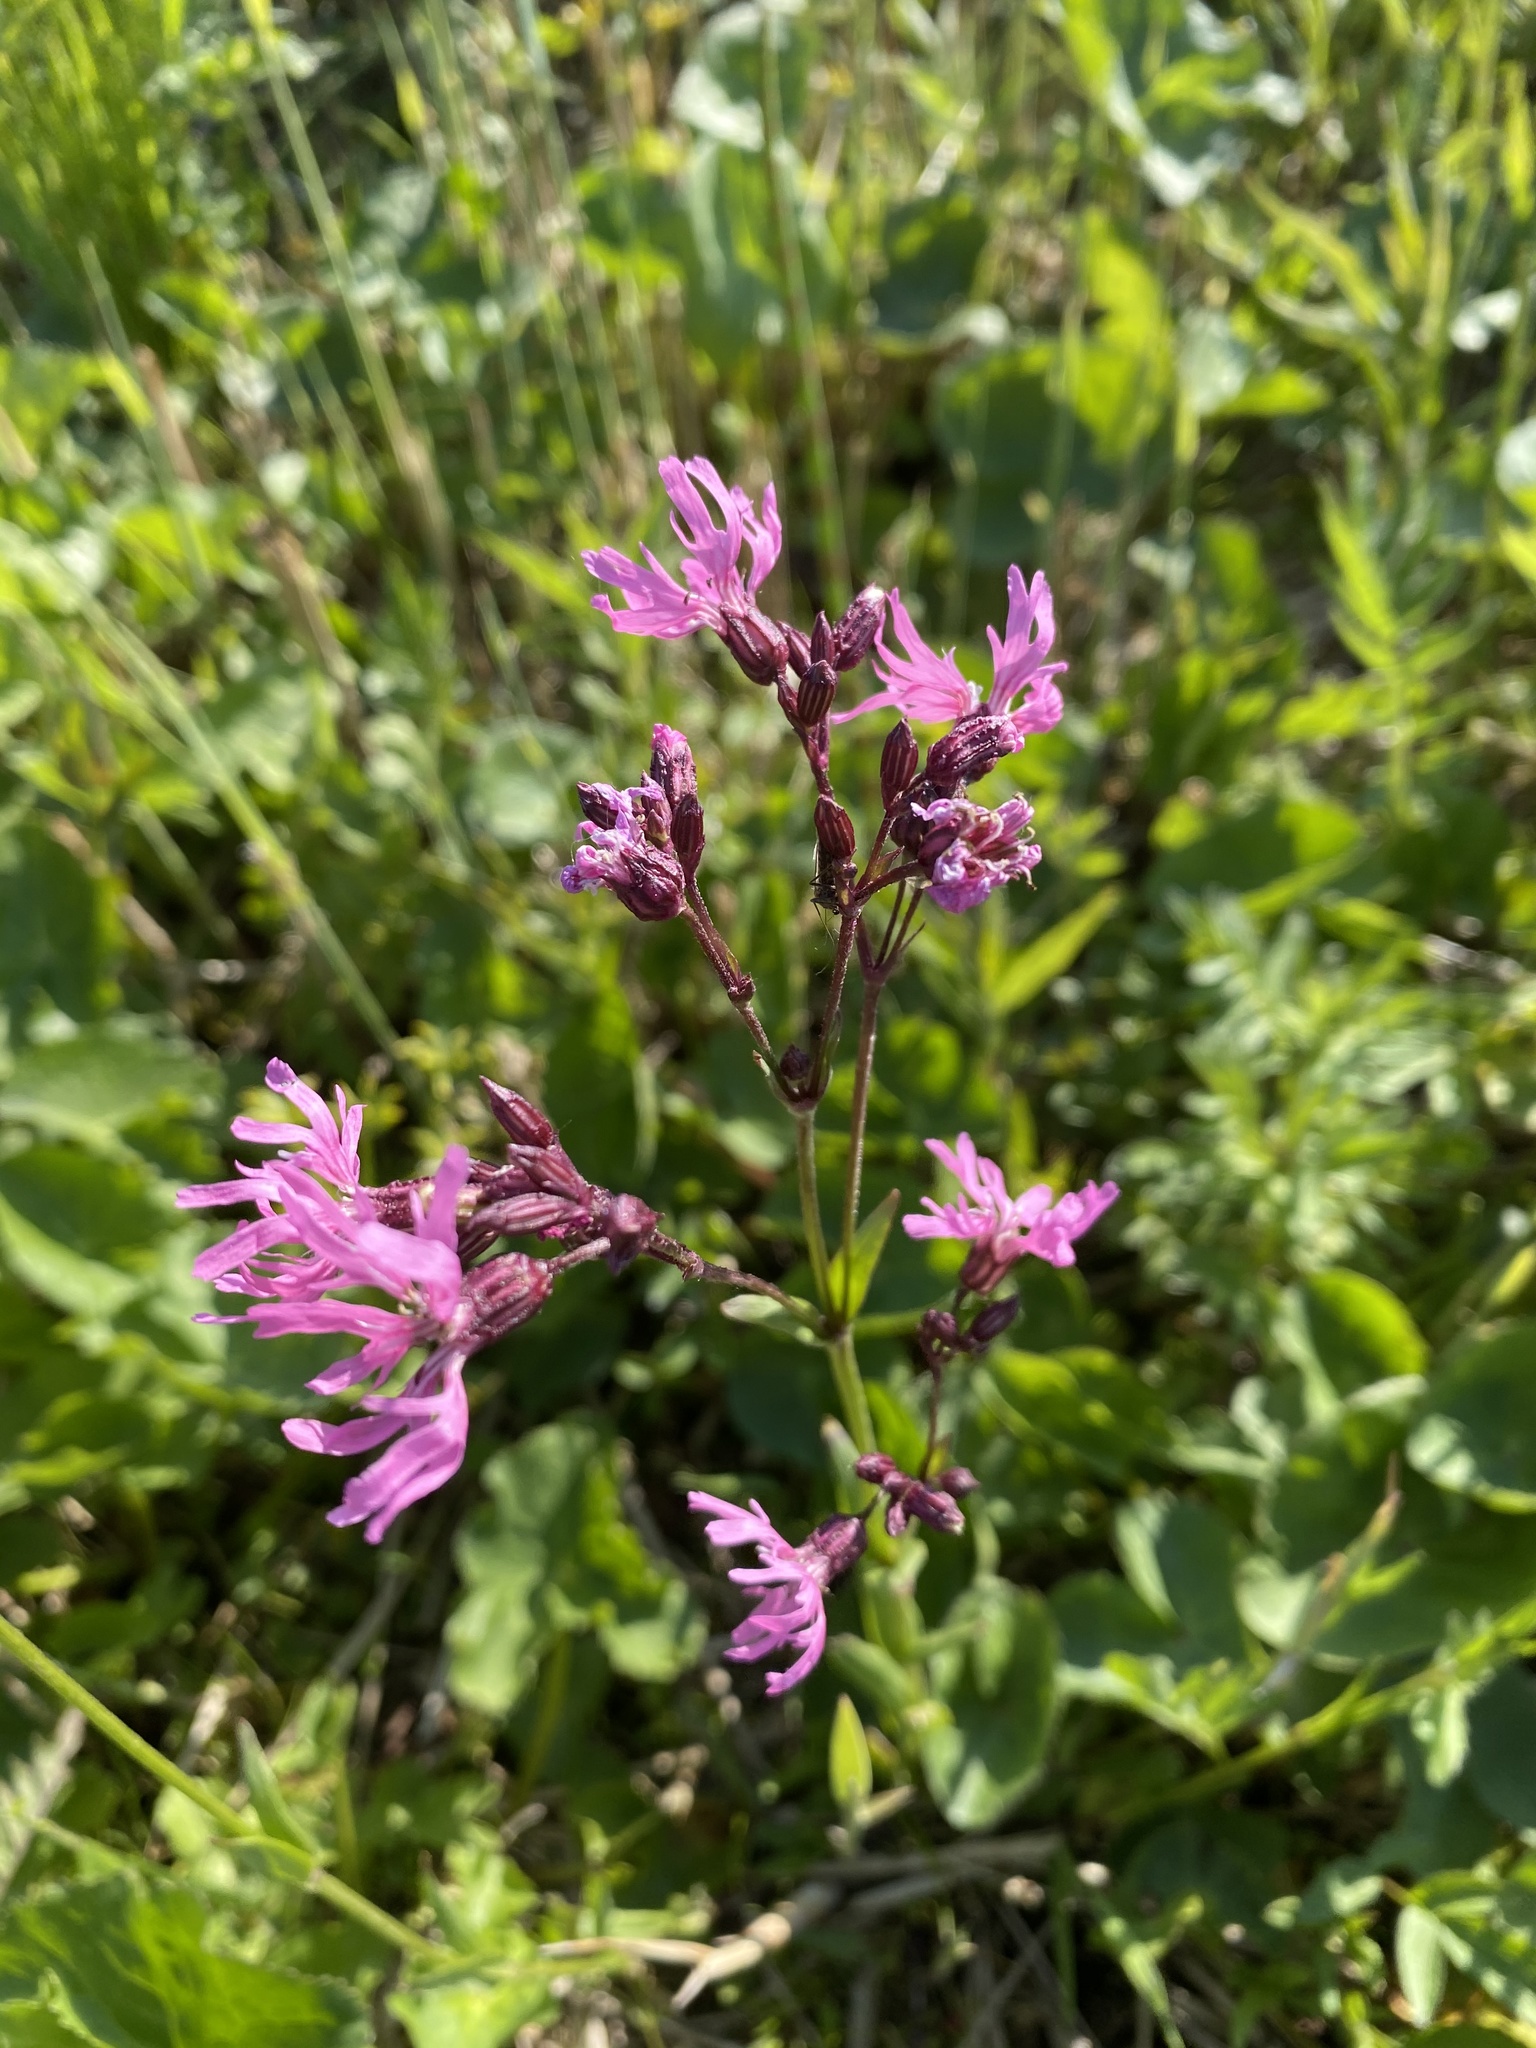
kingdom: Plantae
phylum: Tracheophyta
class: Magnoliopsida
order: Caryophyllales
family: Caryophyllaceae
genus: Silene
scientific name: Silene flos-cuculi
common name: Ragged-robin
